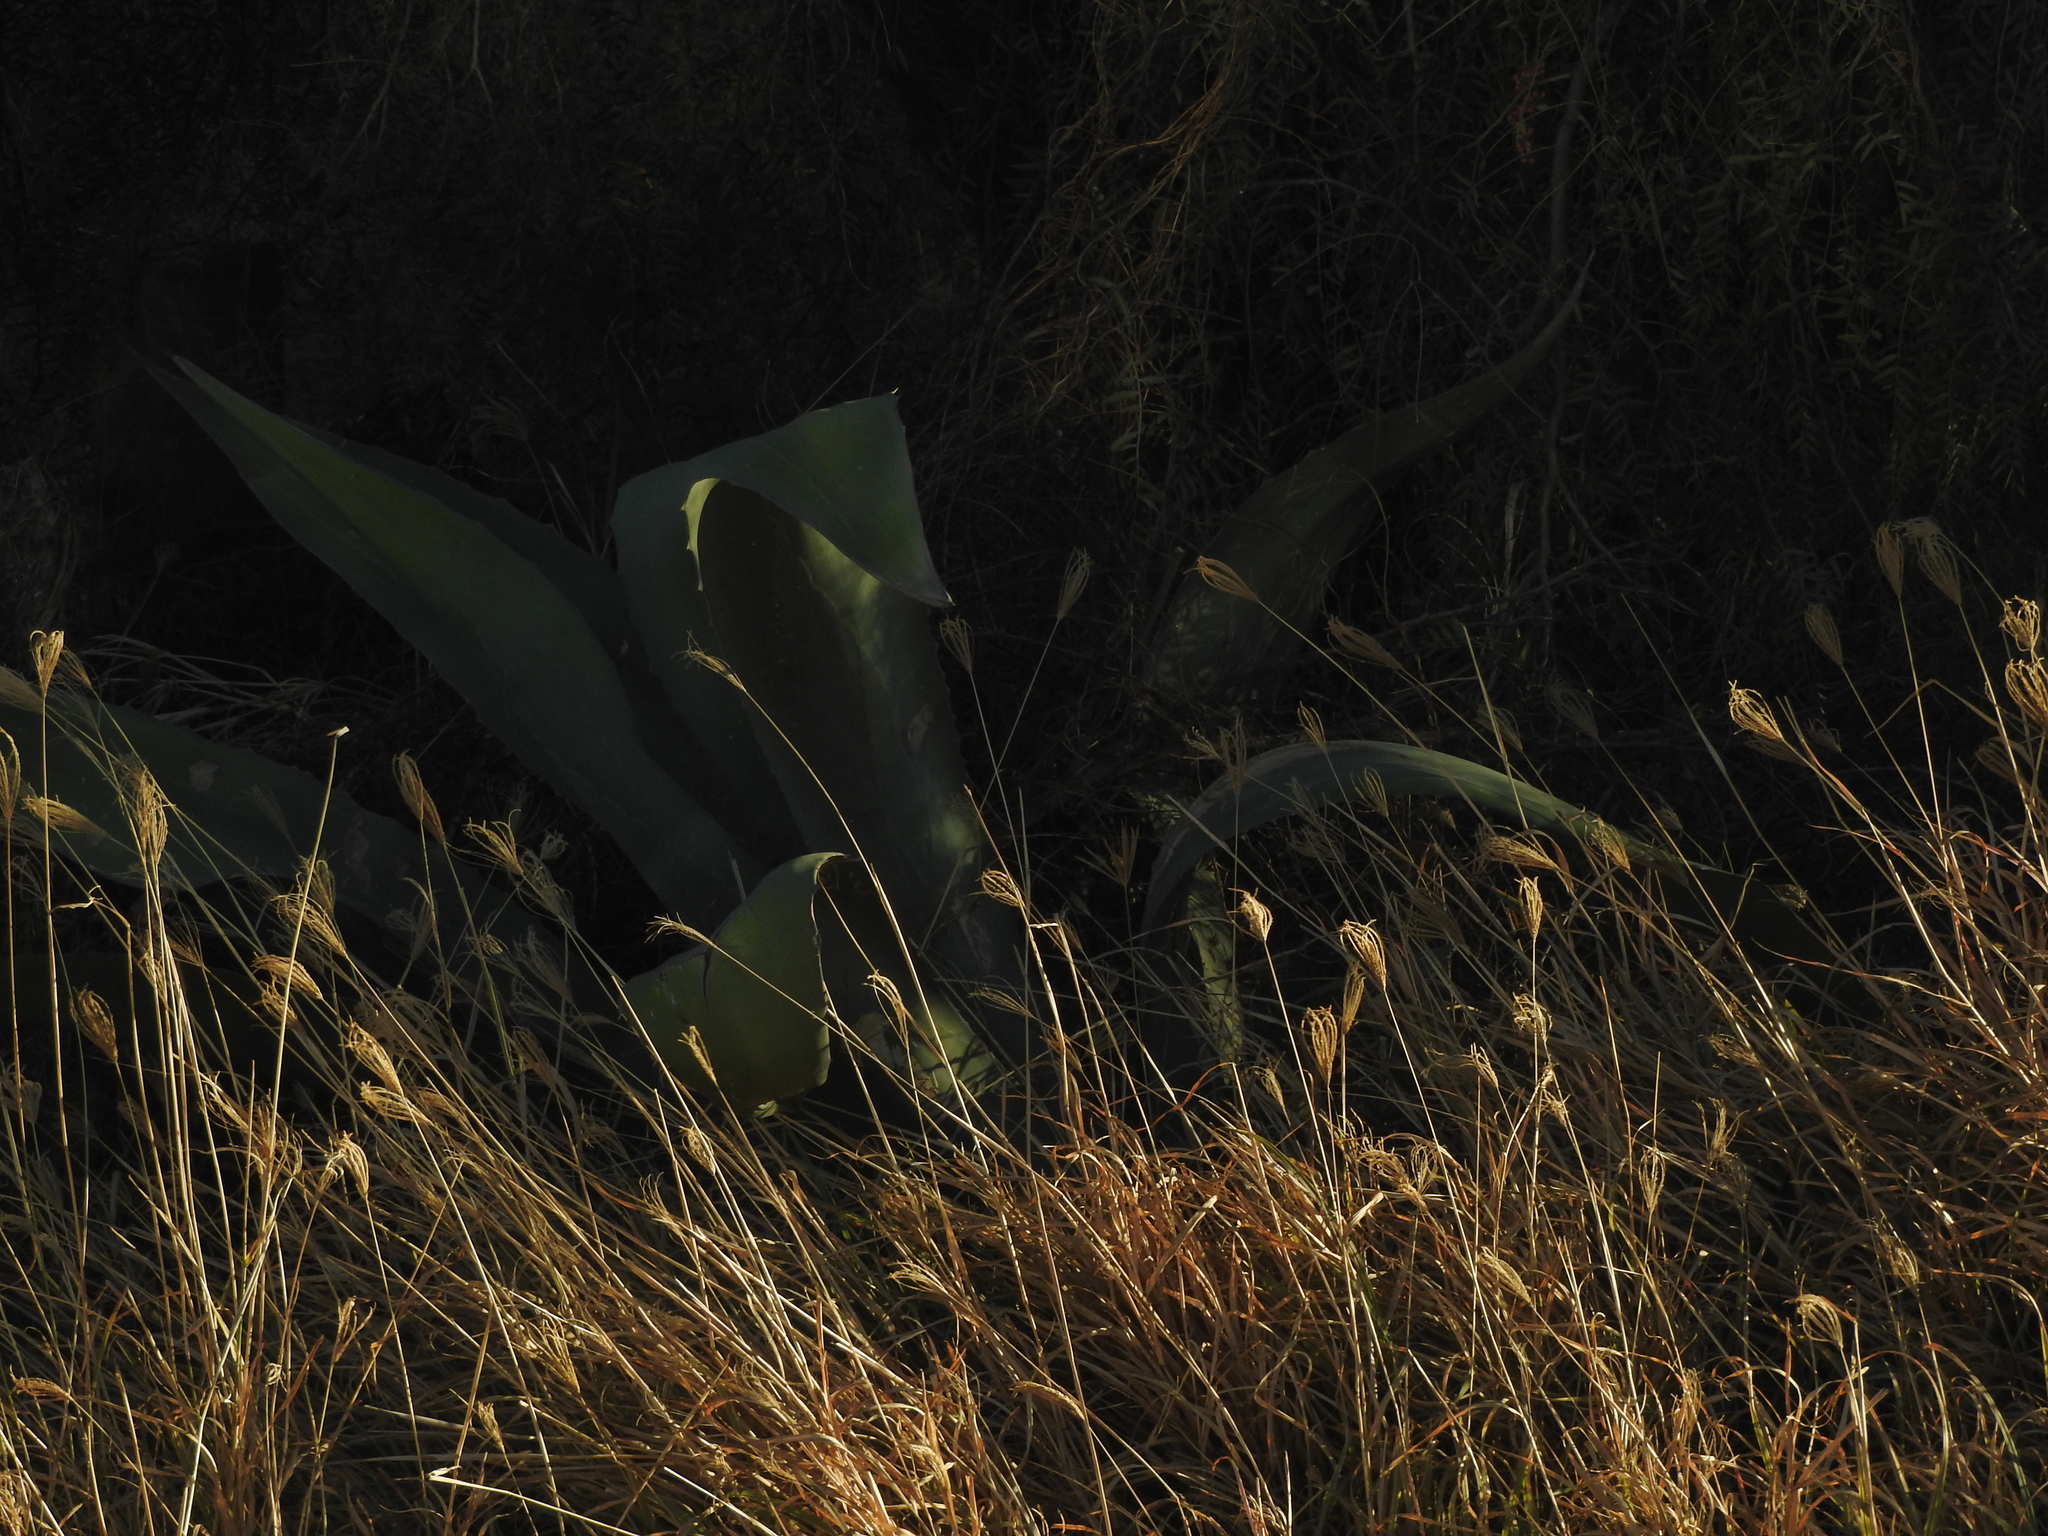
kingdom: Plantae
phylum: Tracheophyta
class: Liliopsida
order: Asparagales
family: Asparagaceae
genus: Agave
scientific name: Agave salmiana
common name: Pulque agave
